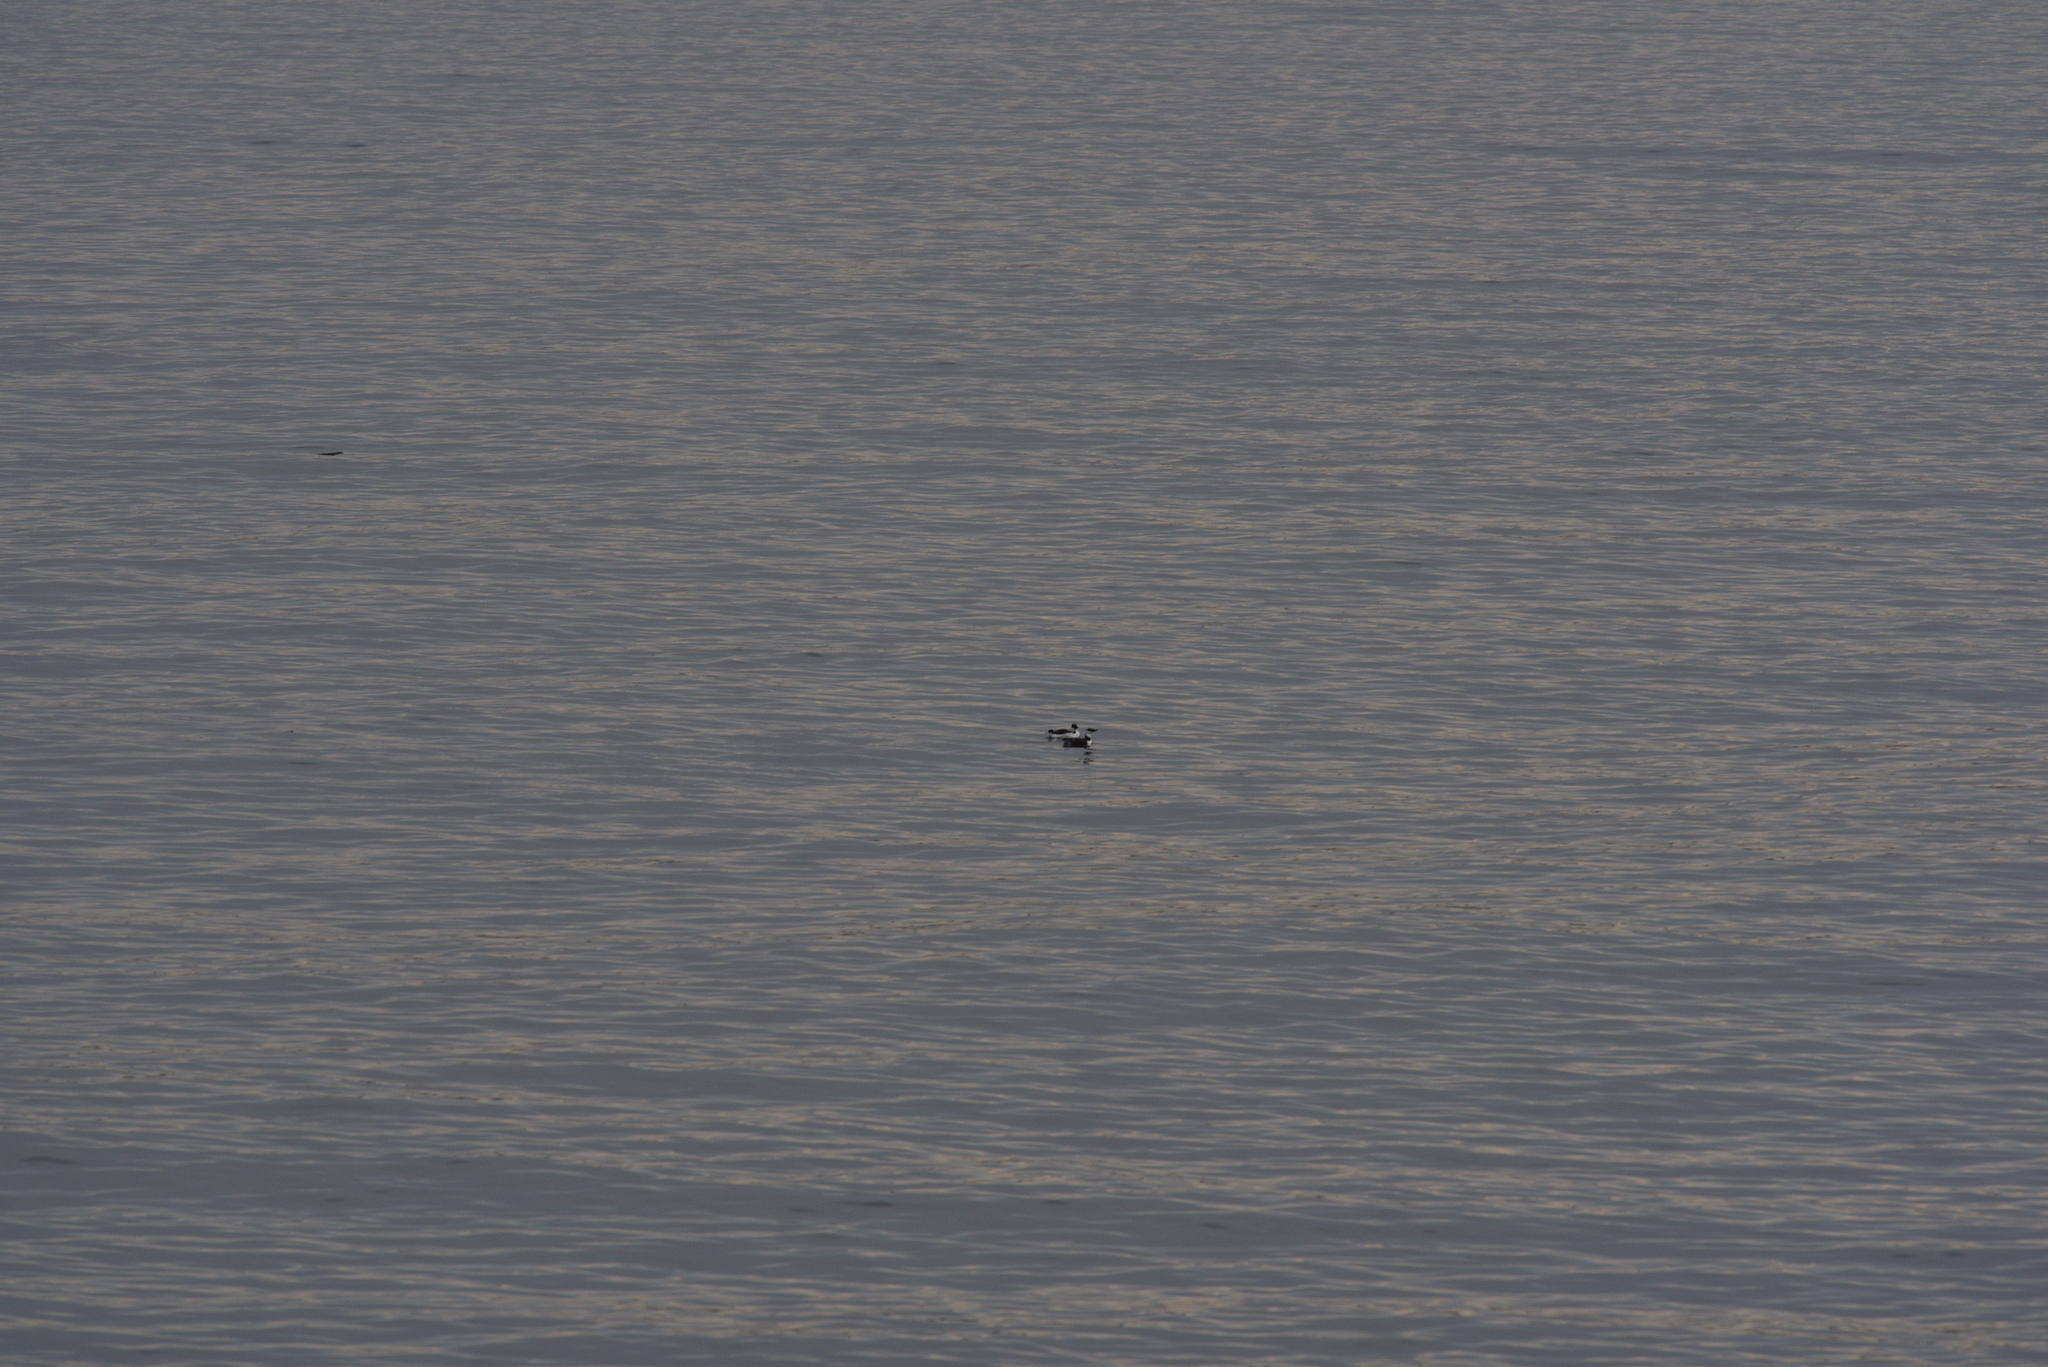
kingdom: Animalia
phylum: Chordata
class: Aves
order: Charadriiformes
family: Alcidae
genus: Uria
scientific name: Uria aalge
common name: Common murre
